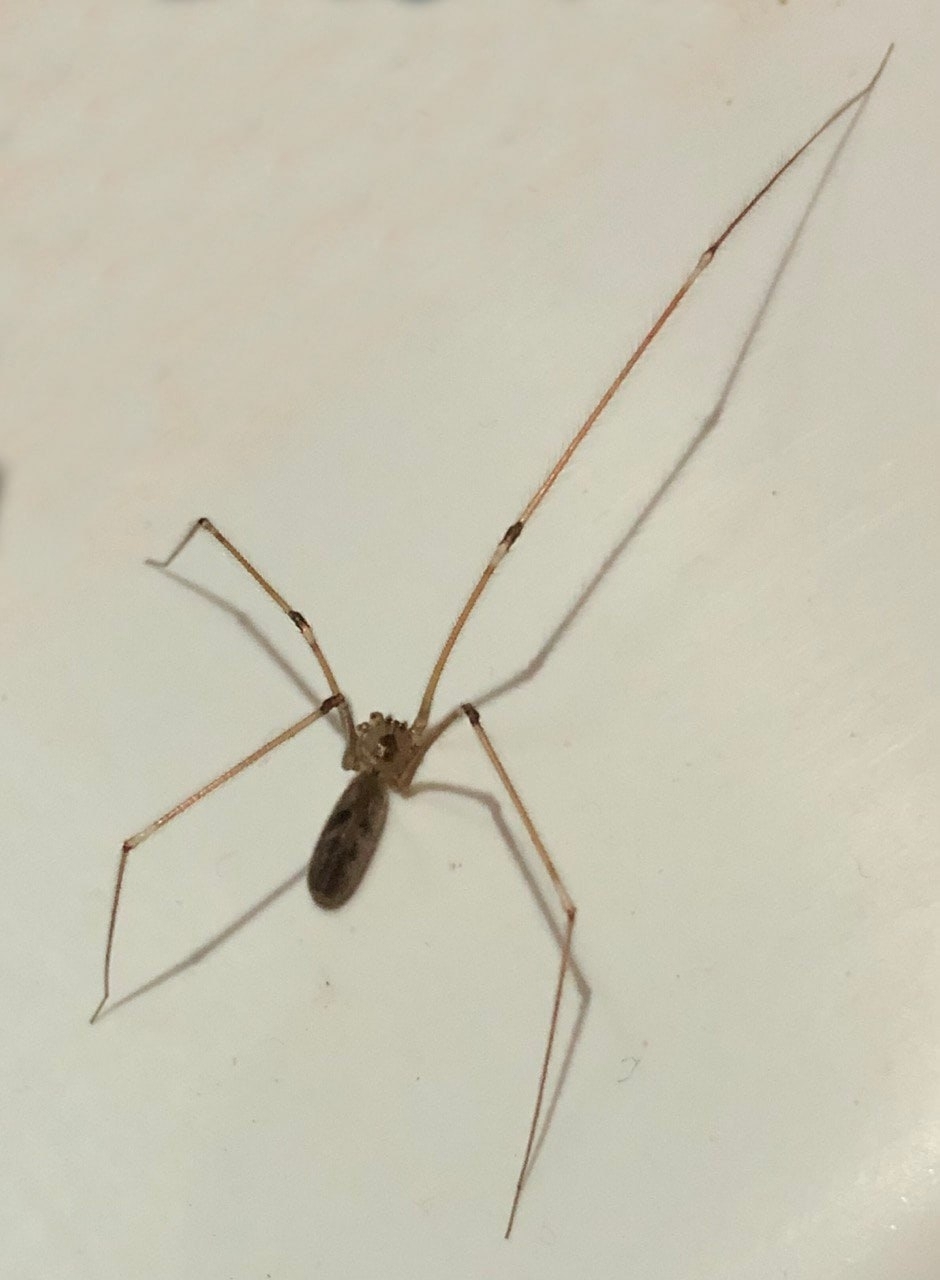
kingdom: Animalia
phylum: Arthropoda
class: Arachnida
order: Araneae
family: Pholcidae
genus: Pholcus
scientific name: Pholcus phalangioides
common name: Longbodied cellar spider
